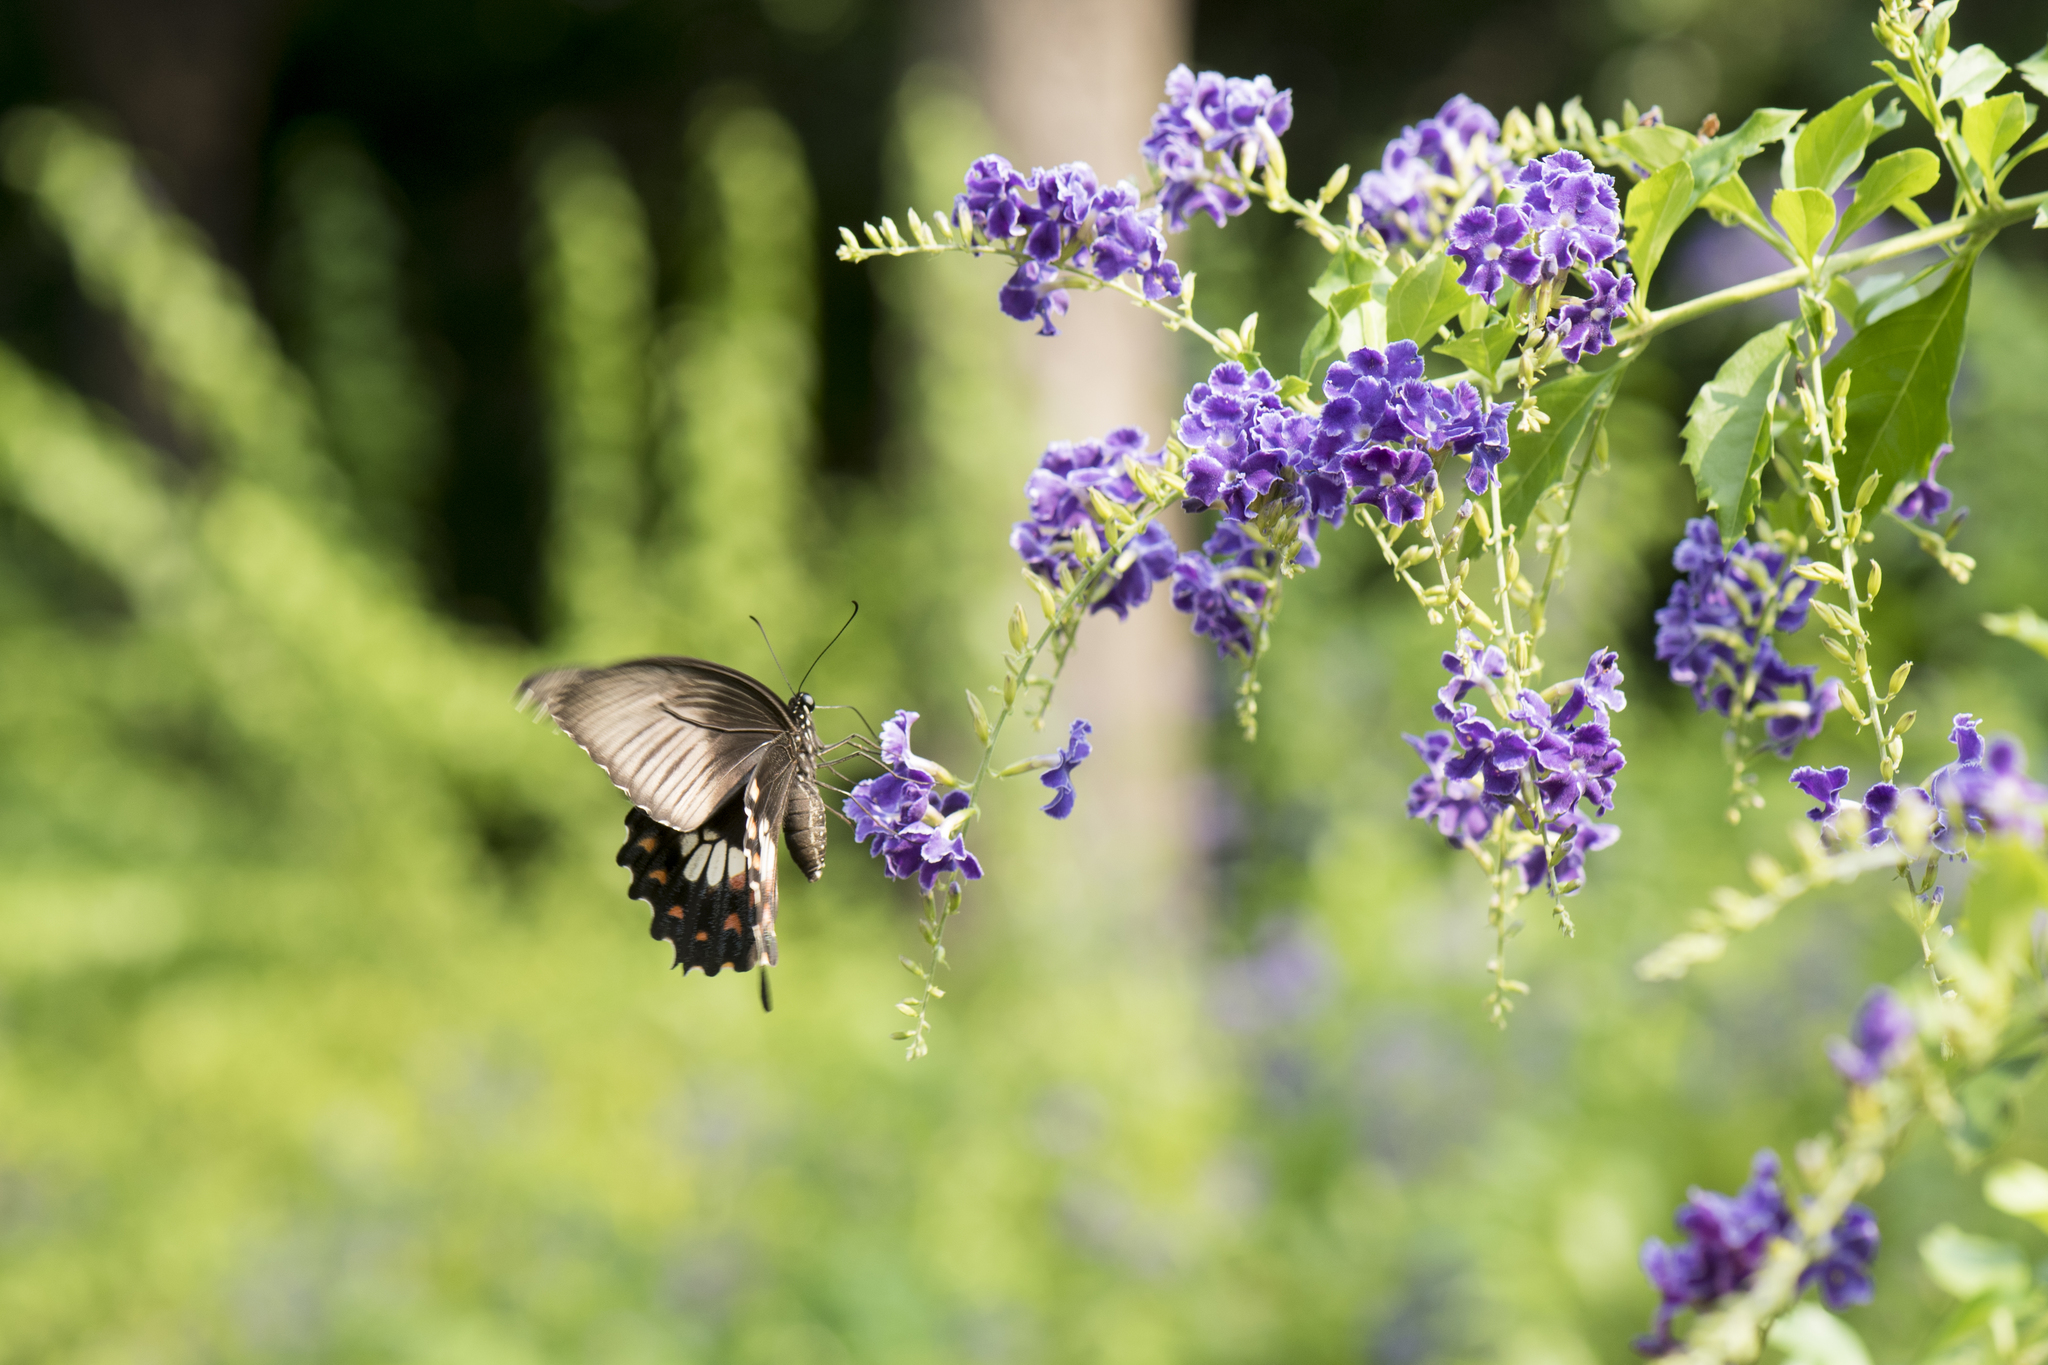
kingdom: Animalia
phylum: Arthropoda
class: Insecta
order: Lepidoptera
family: Papilionidae
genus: Papilio
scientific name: Papilio polytes
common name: Common mormon
